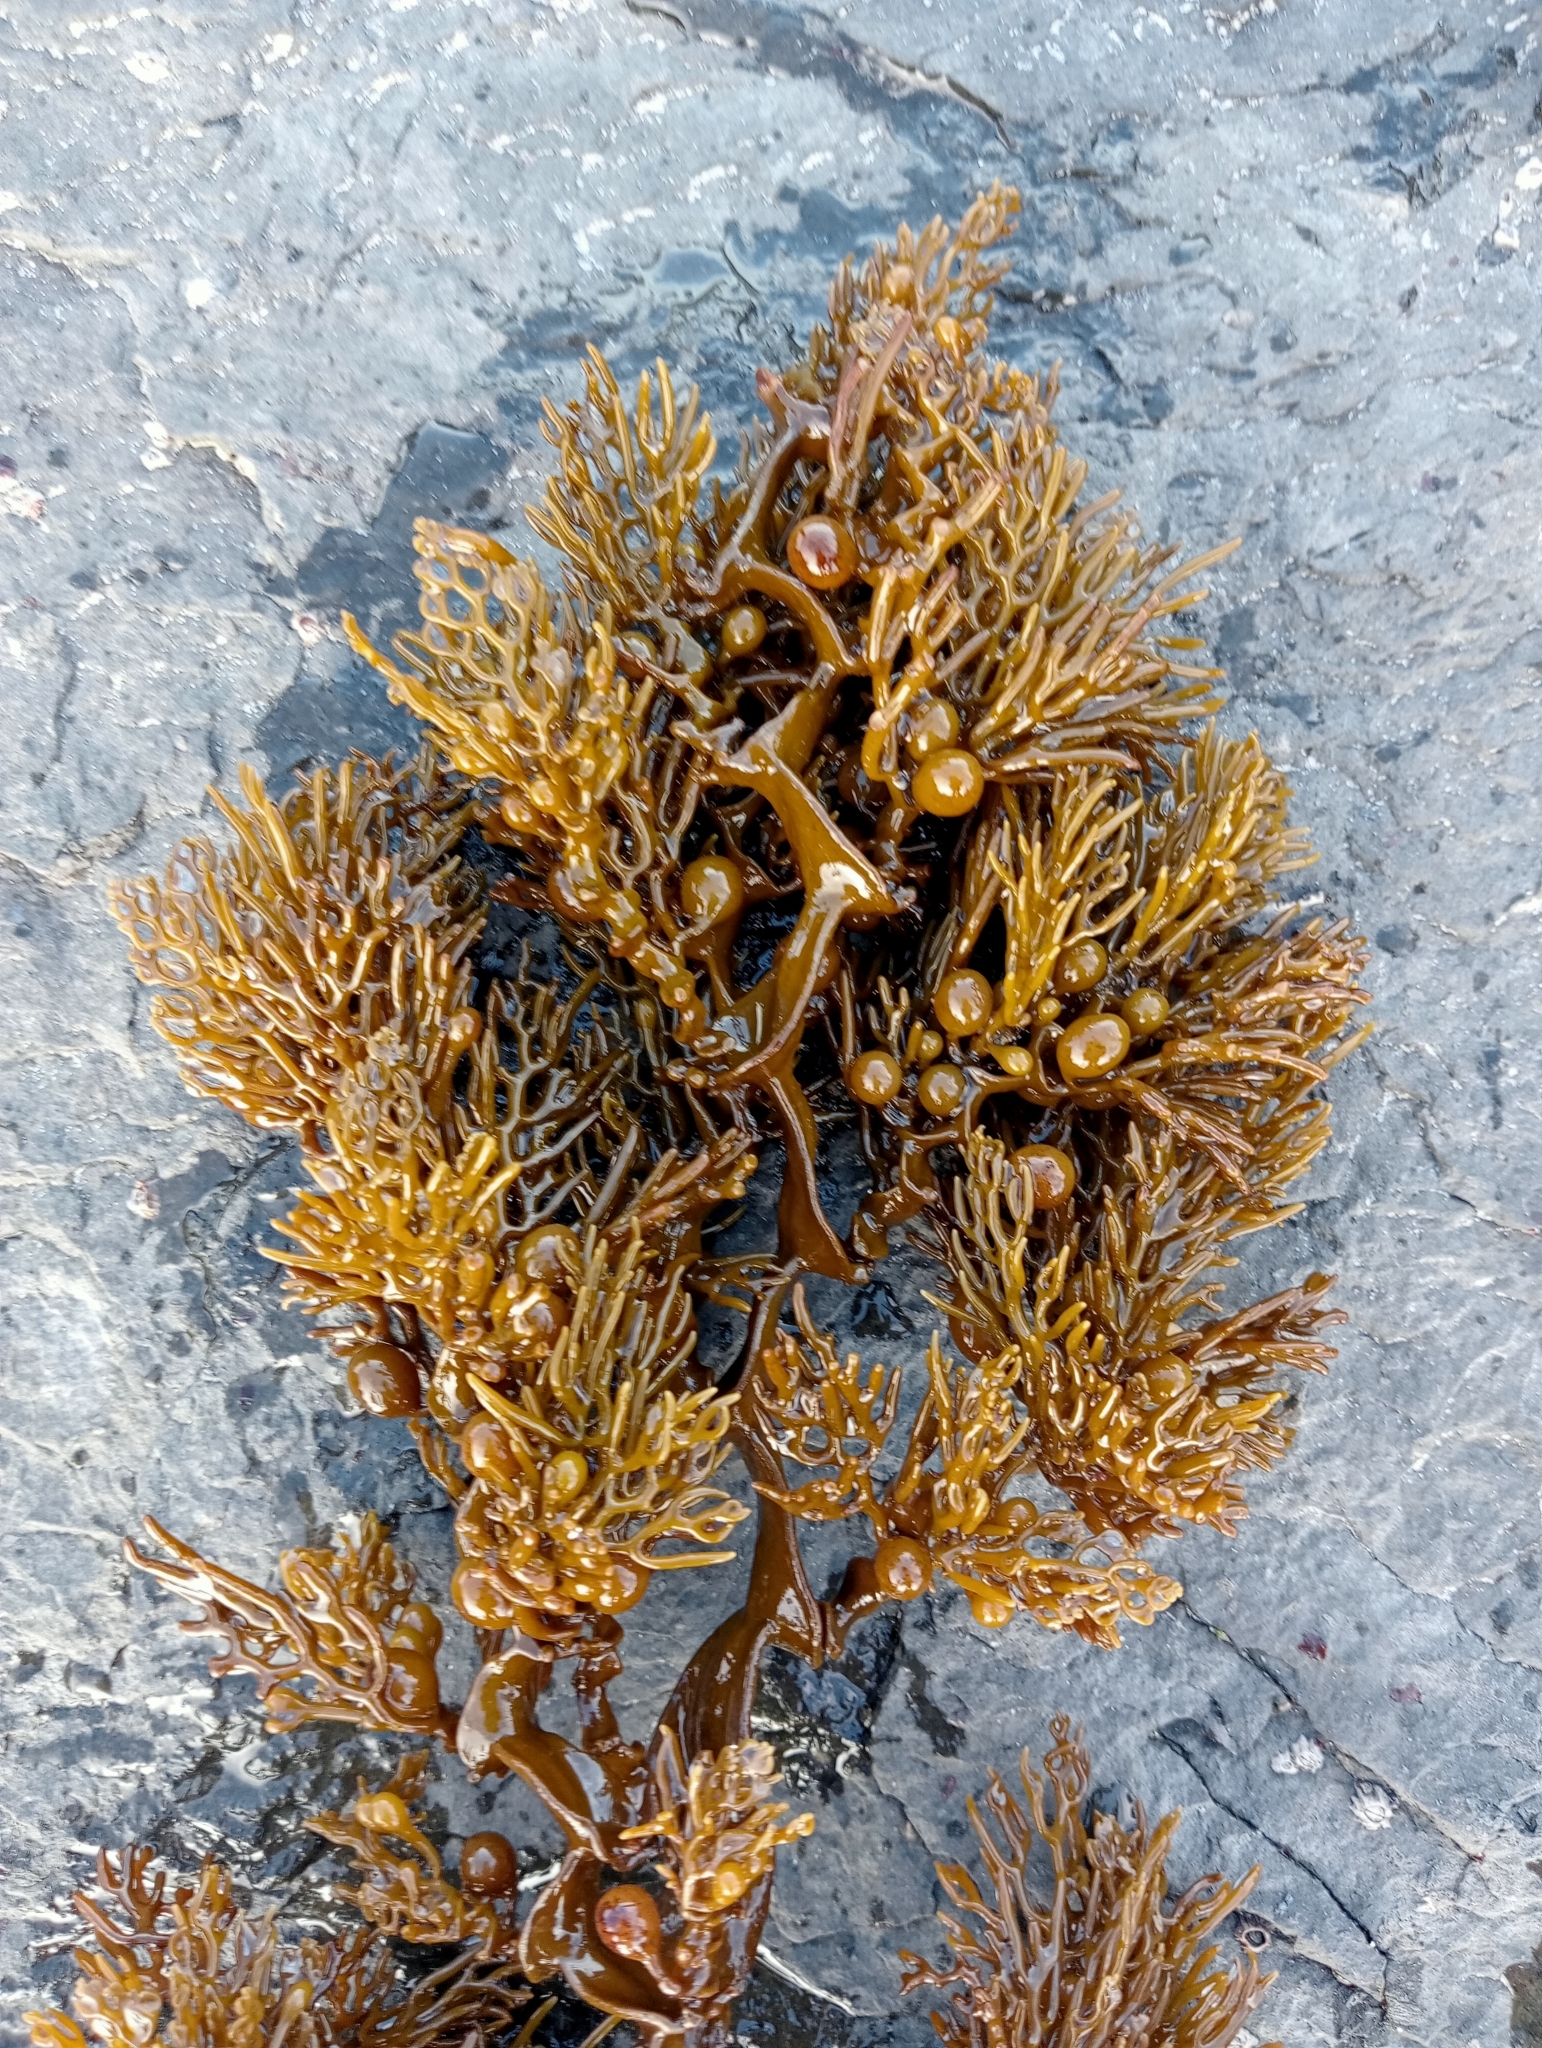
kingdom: Chromista
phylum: Ochrophyta
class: Phaeophyceae
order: Fucales
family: Sargassaceae
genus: Cystophora
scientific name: Cystophora scalaris
